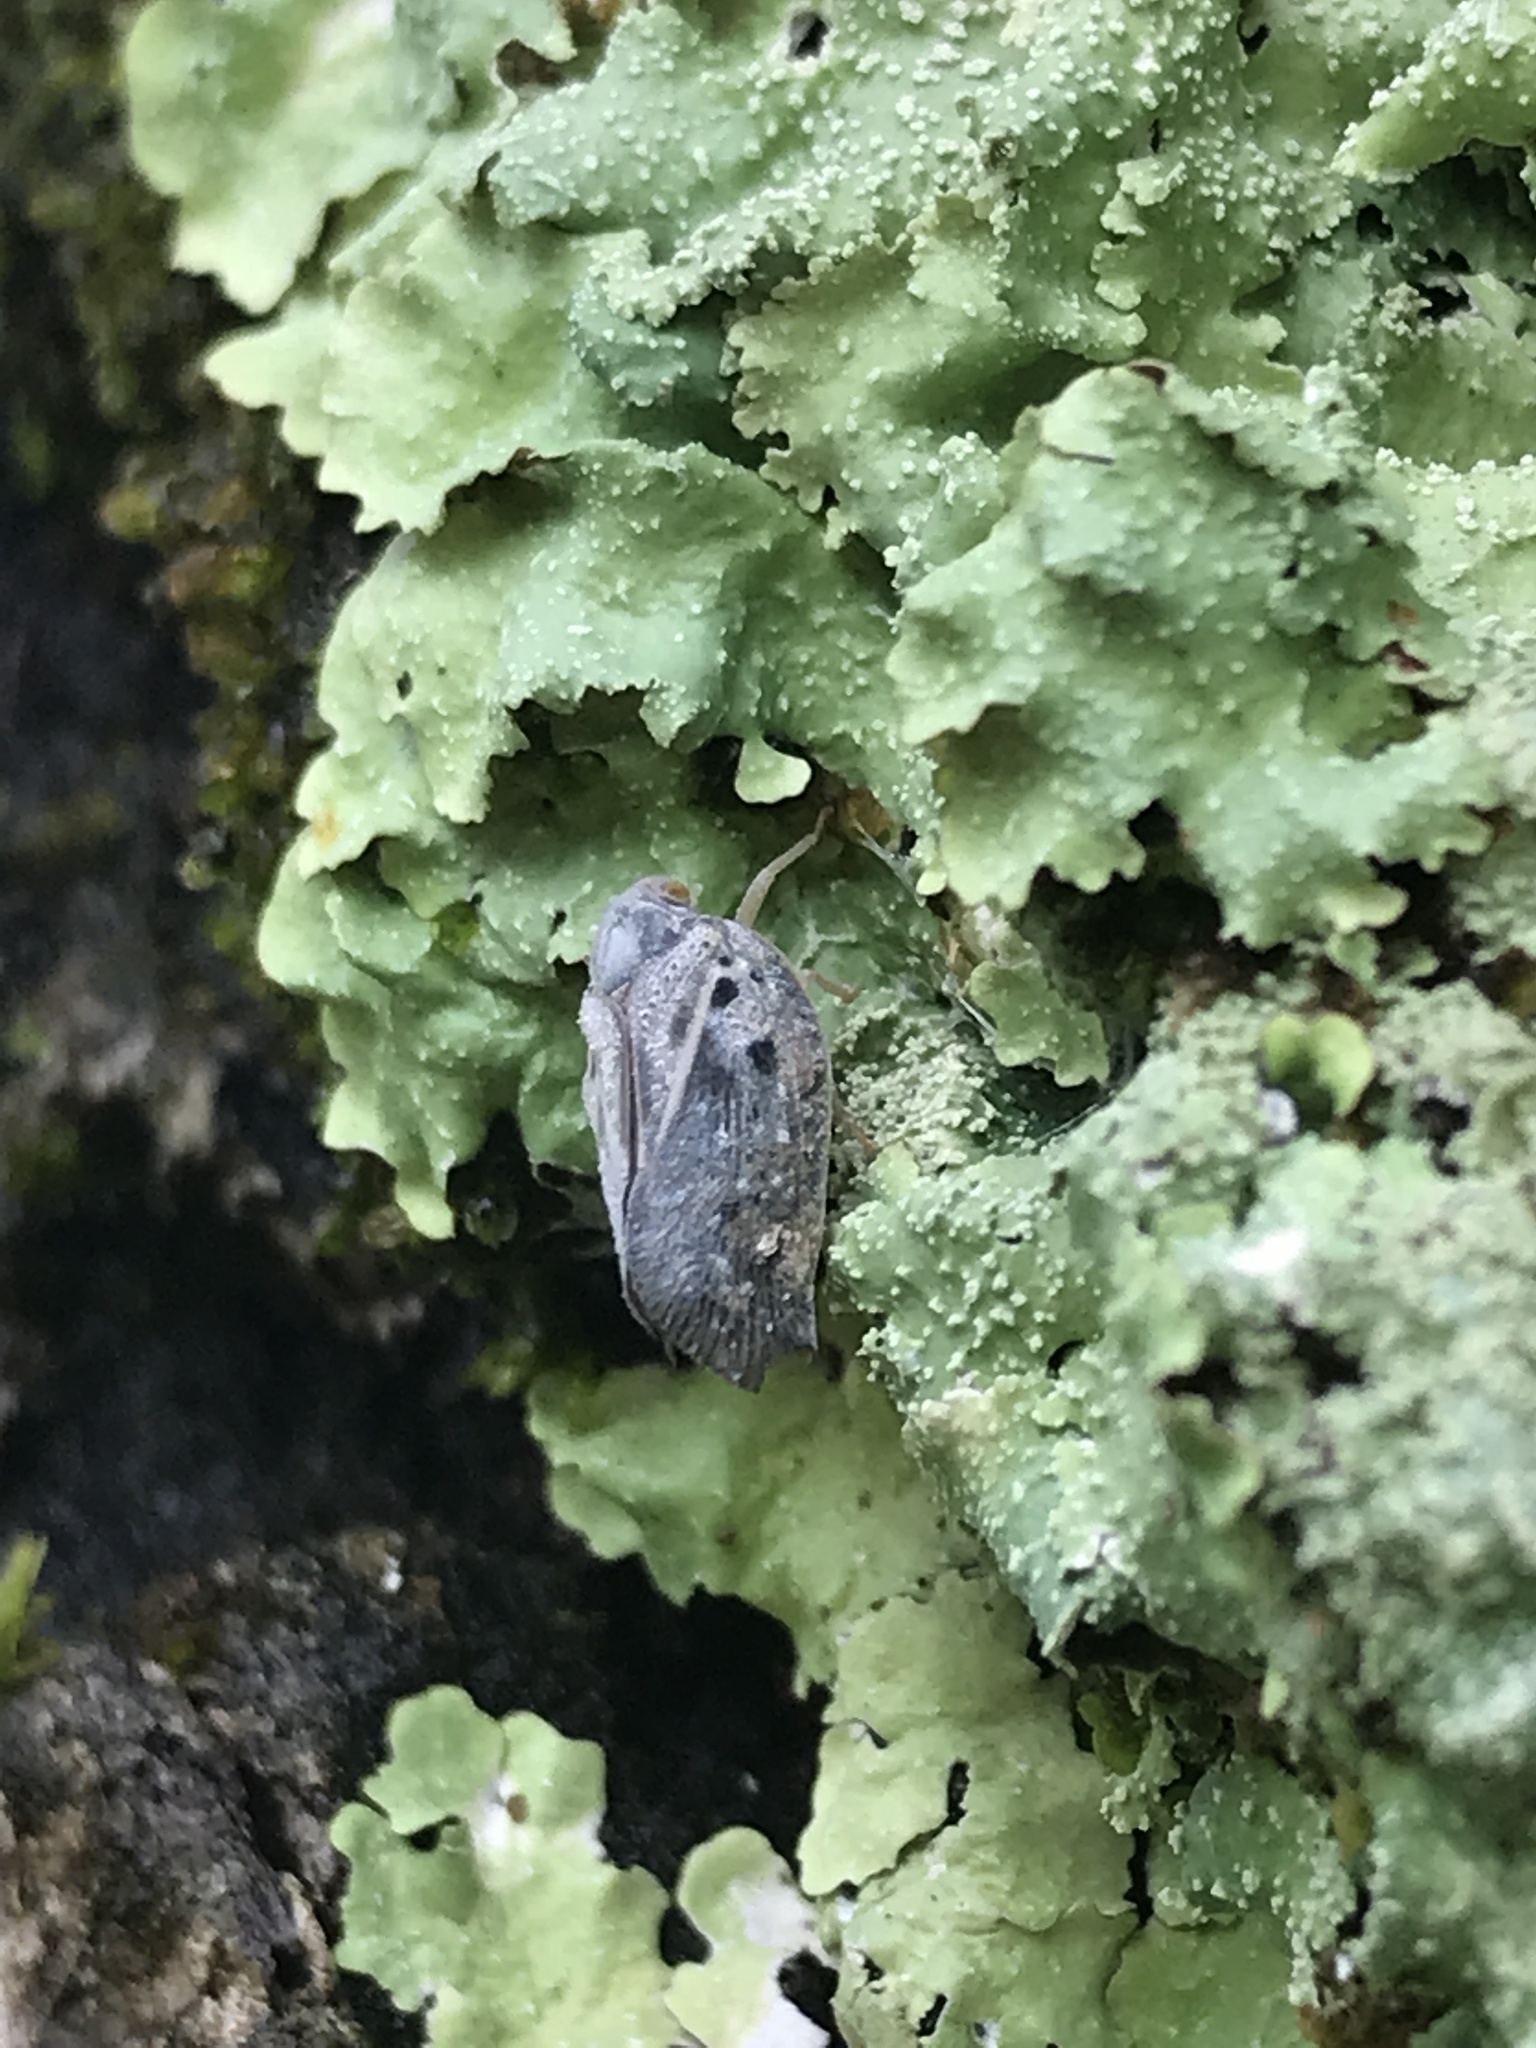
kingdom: Animalia
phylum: Arthropoda
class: Insecta
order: Hemiptera
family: Flatidae
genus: Metcalfa
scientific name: Metcalfa pruinosa
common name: Citrus flatid planthopper
